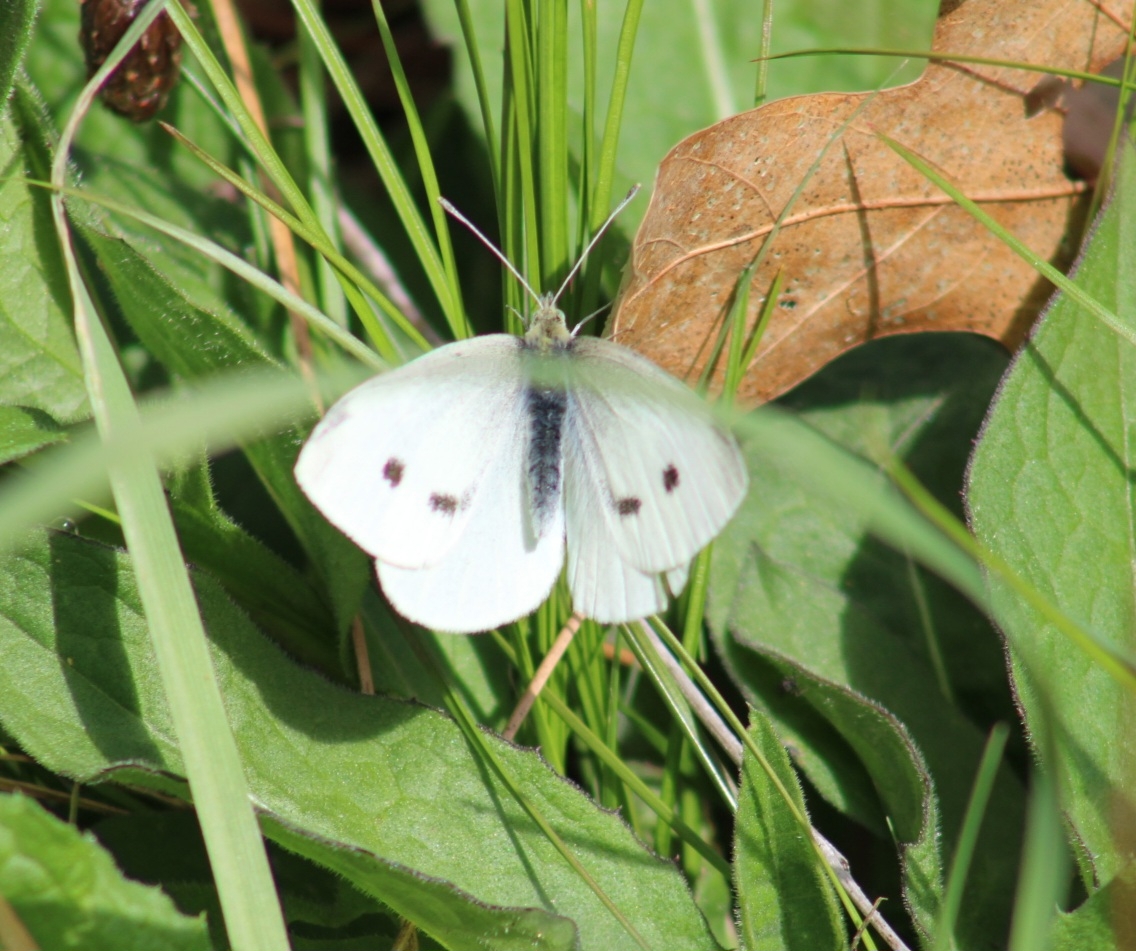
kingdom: Animalia
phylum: Arthropoda
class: Insecta
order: Lepidoptera
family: Pieridae
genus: Pieris
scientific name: Pieris rapae
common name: Small white
